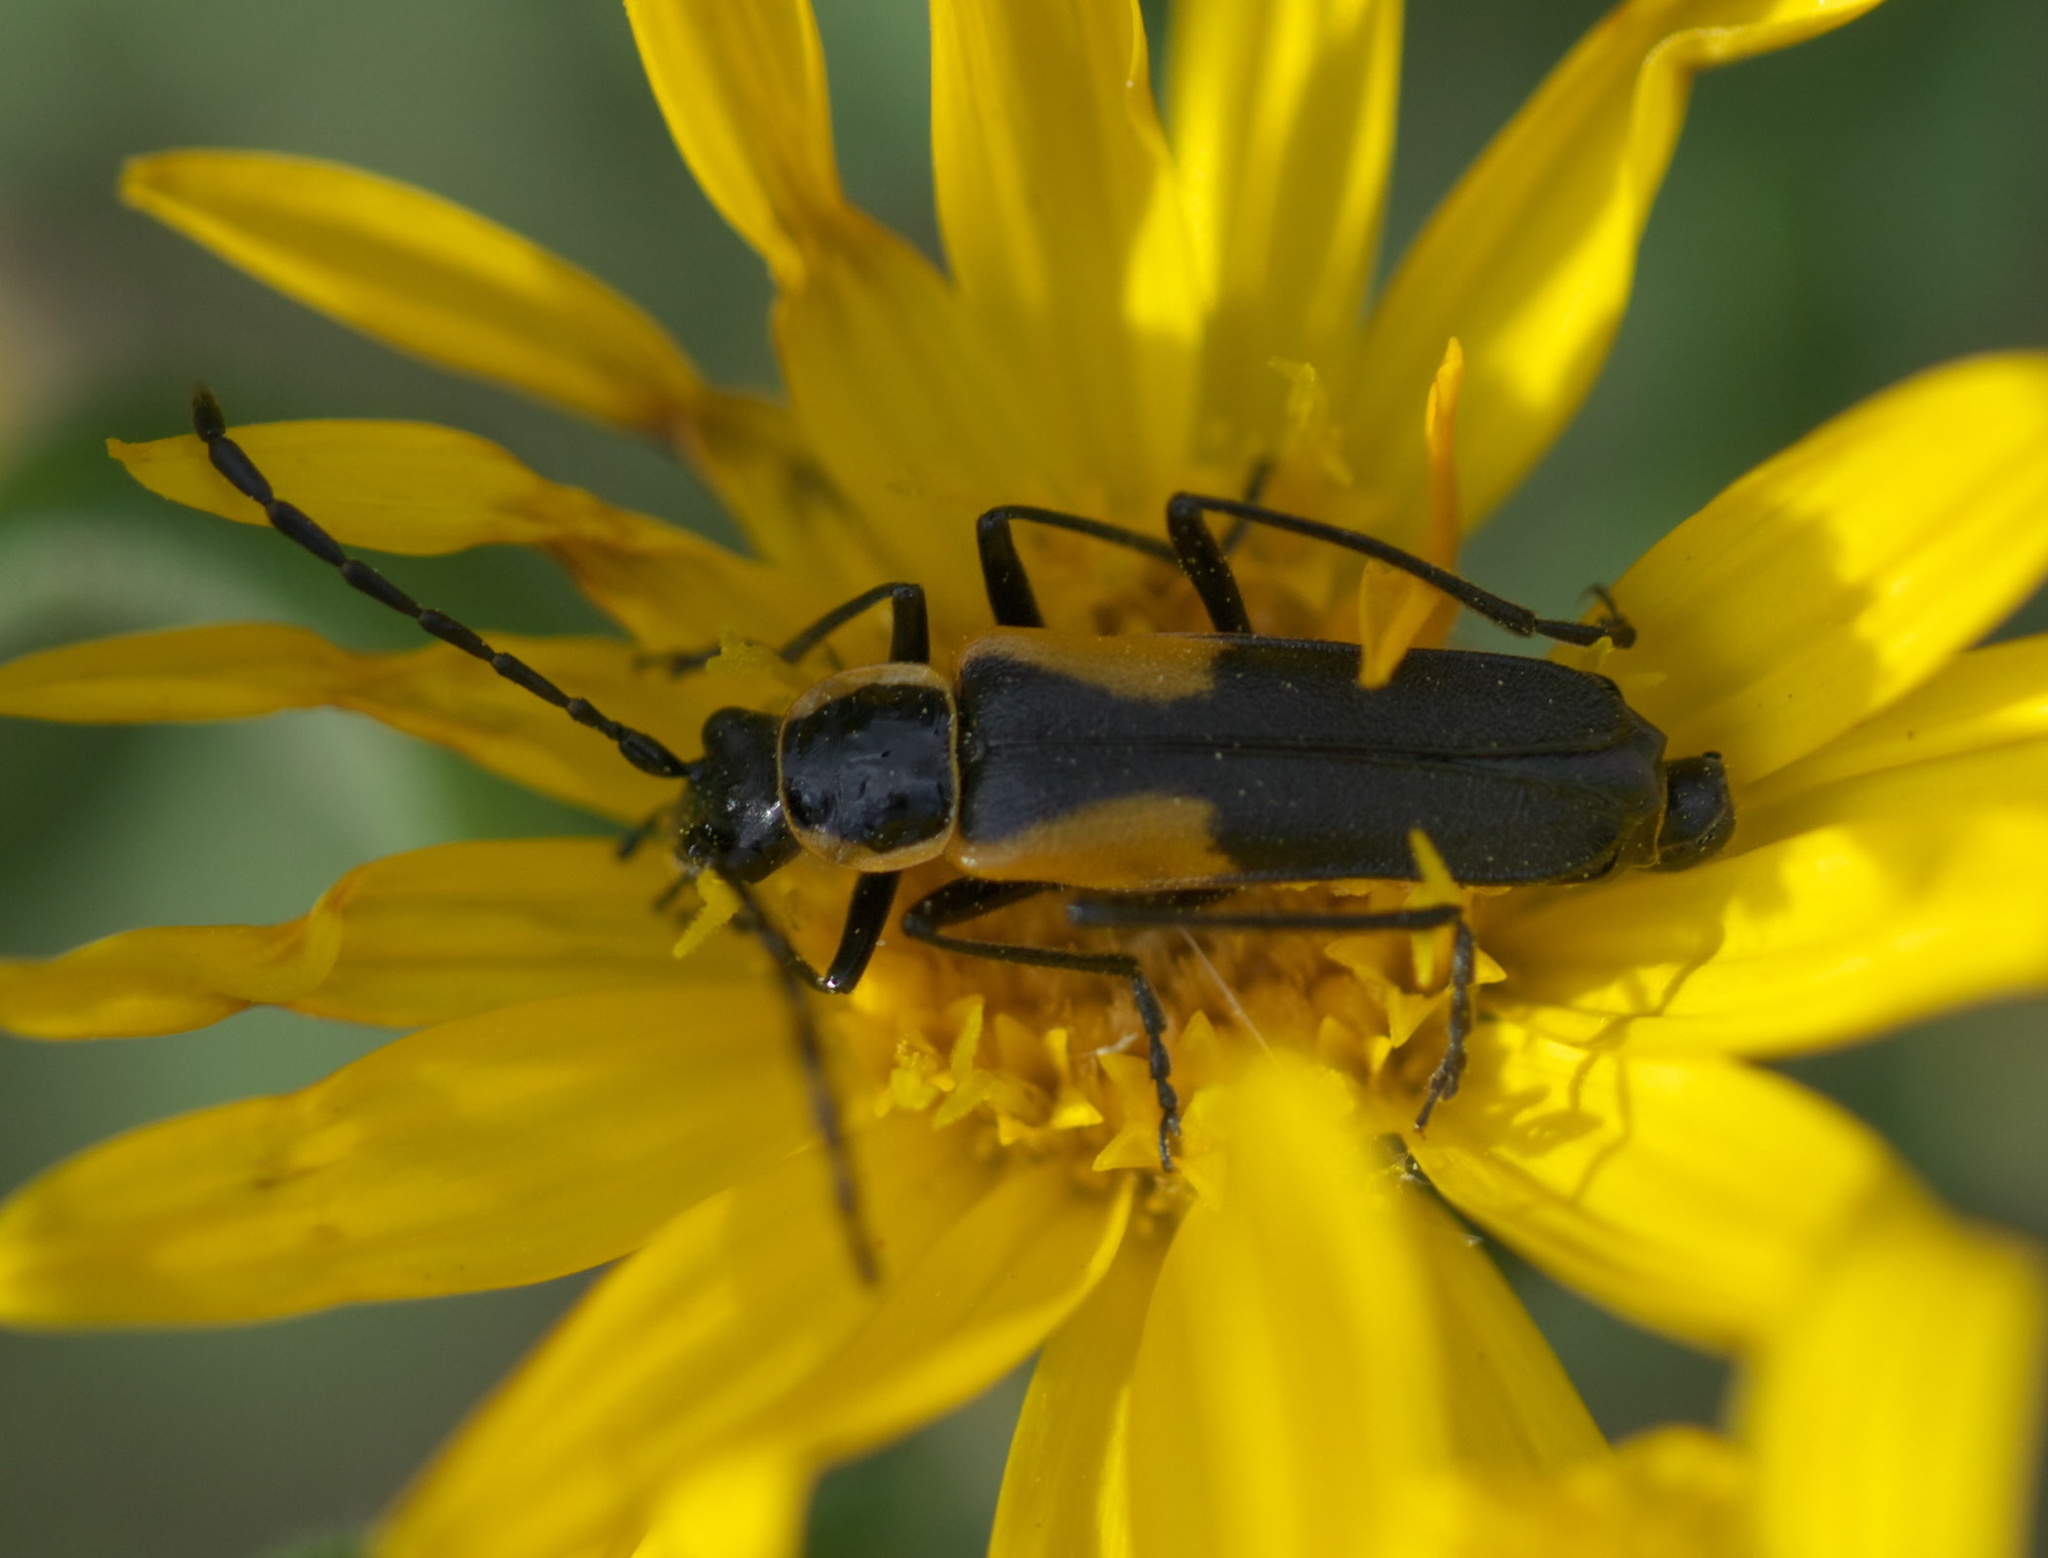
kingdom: Animalia
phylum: Arthropoda
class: Insecta
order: Coleoptera
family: Cantharidae
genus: Chauliognathus
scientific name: Chauliognathus deceptus
